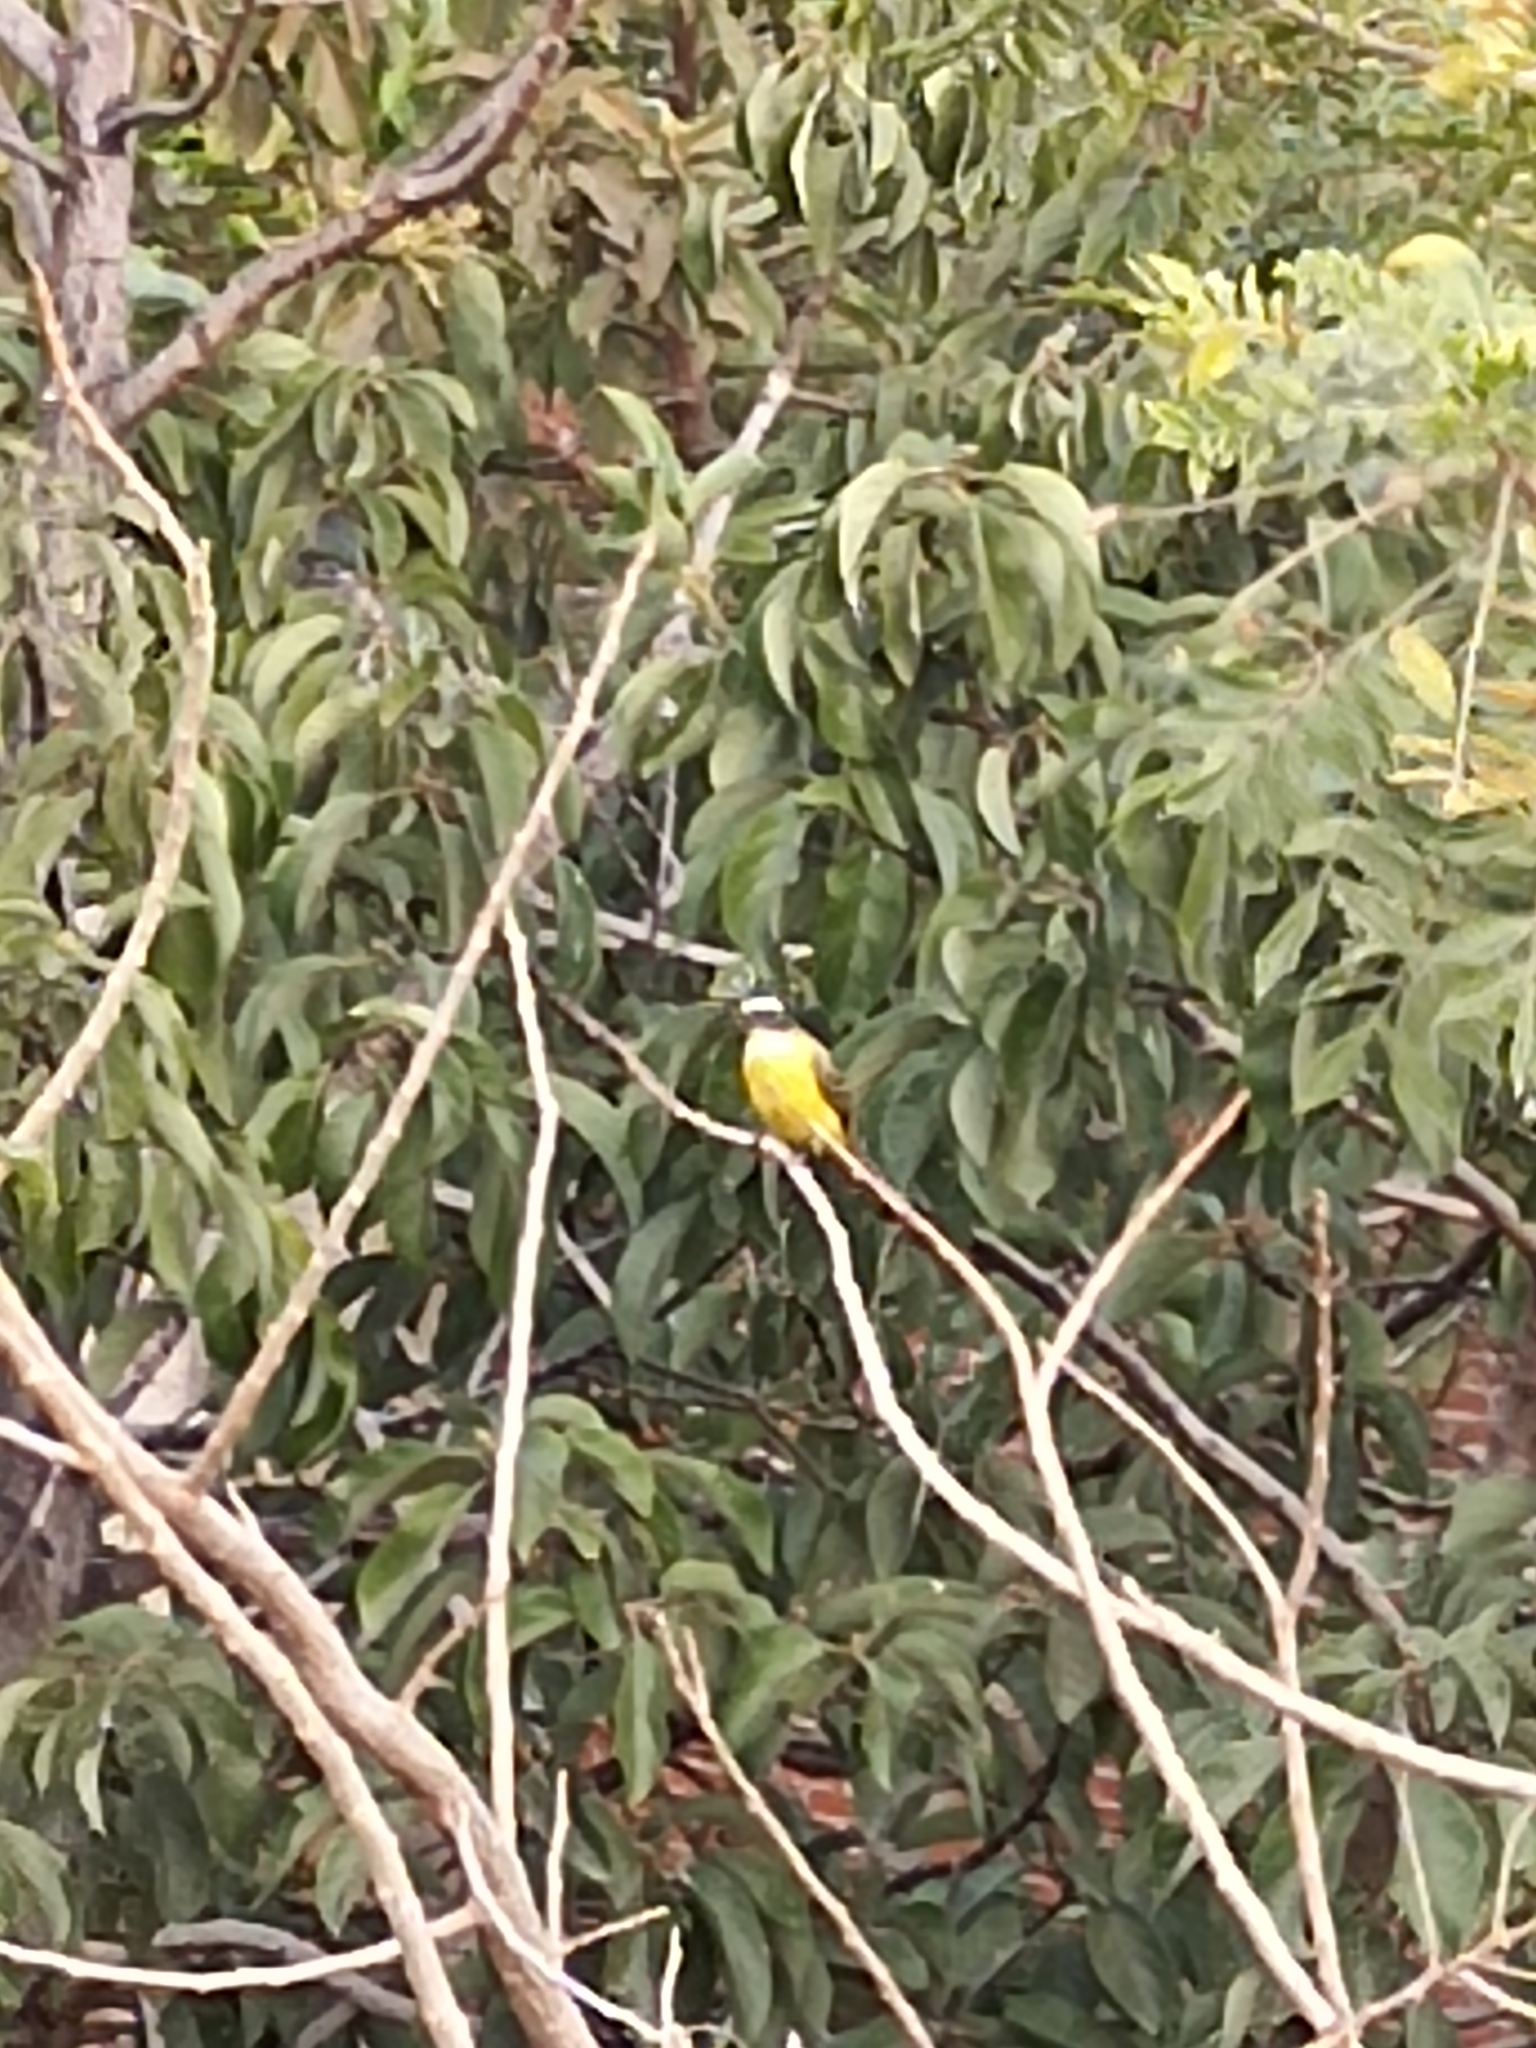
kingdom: Animalia
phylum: Chordata
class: Aves
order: Passeriformes
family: Tyrannidae
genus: Pitangus
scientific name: Pitangus sulphuratus
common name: Great kiskadee
